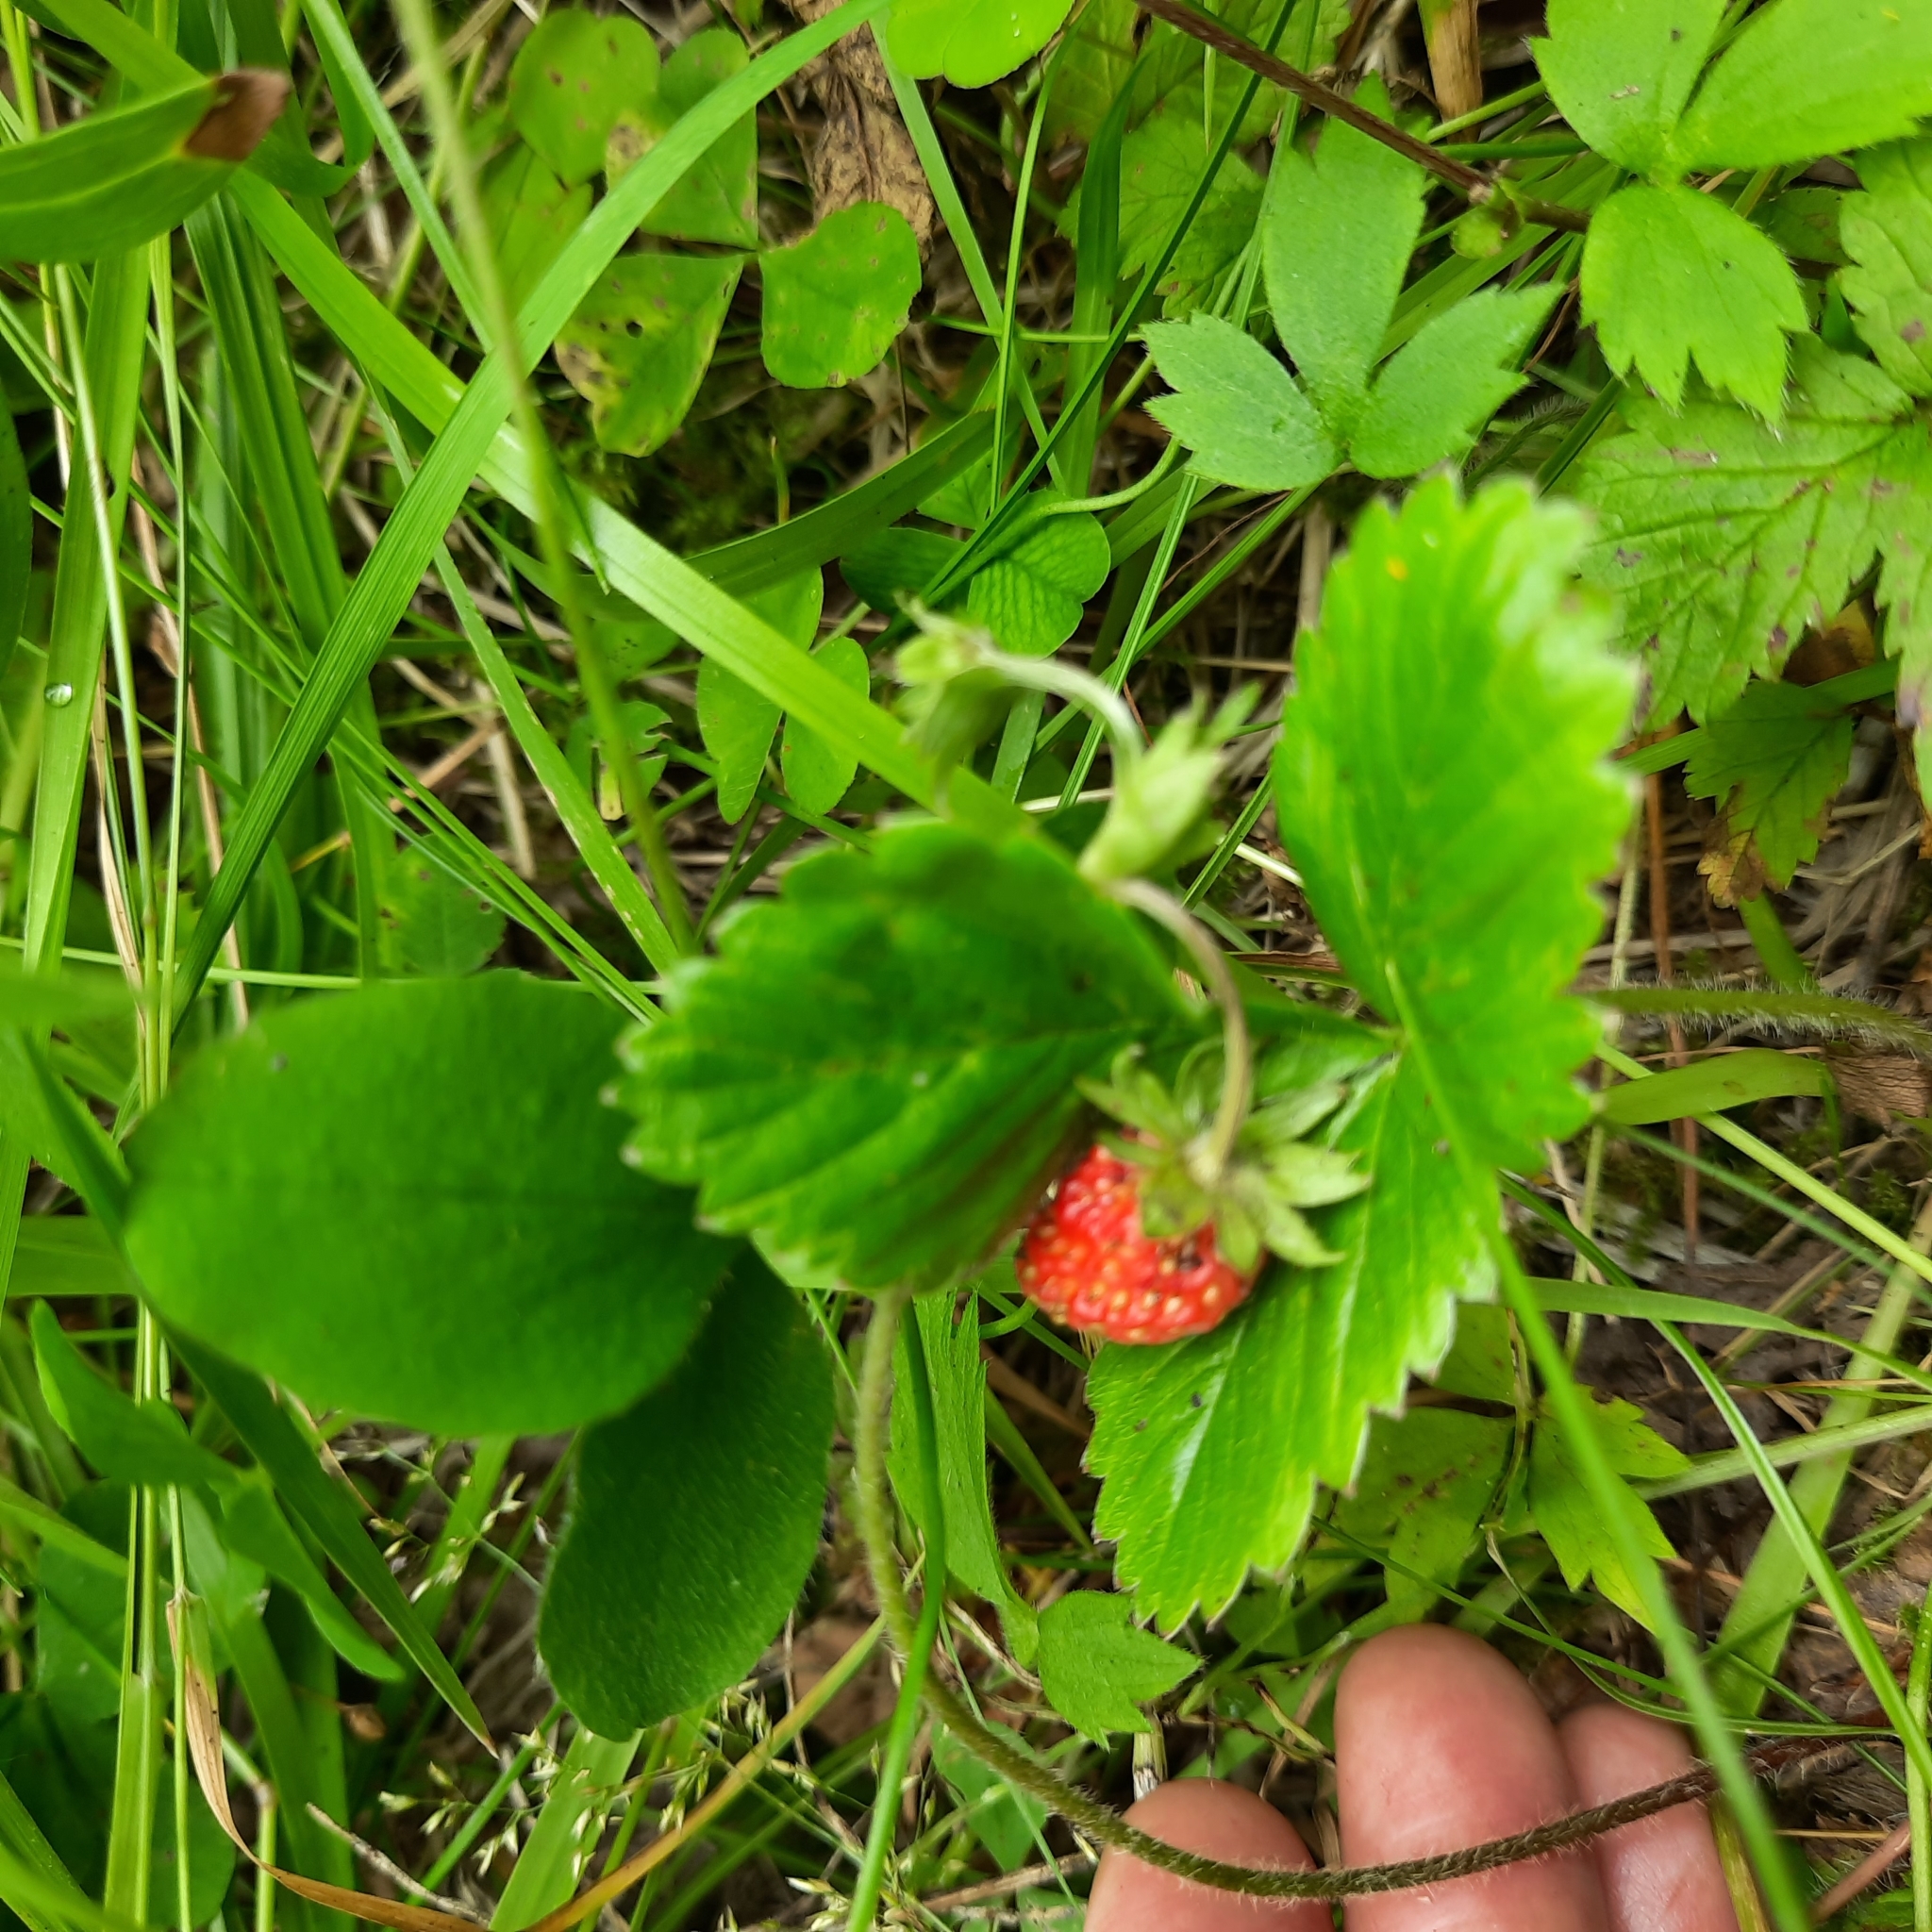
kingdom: Plantae
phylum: Tracheophyta
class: Magnoliopsida
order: Rosales
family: Rosaceae
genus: Fragaria
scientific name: Fragaria vesca
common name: Wild strawberry
